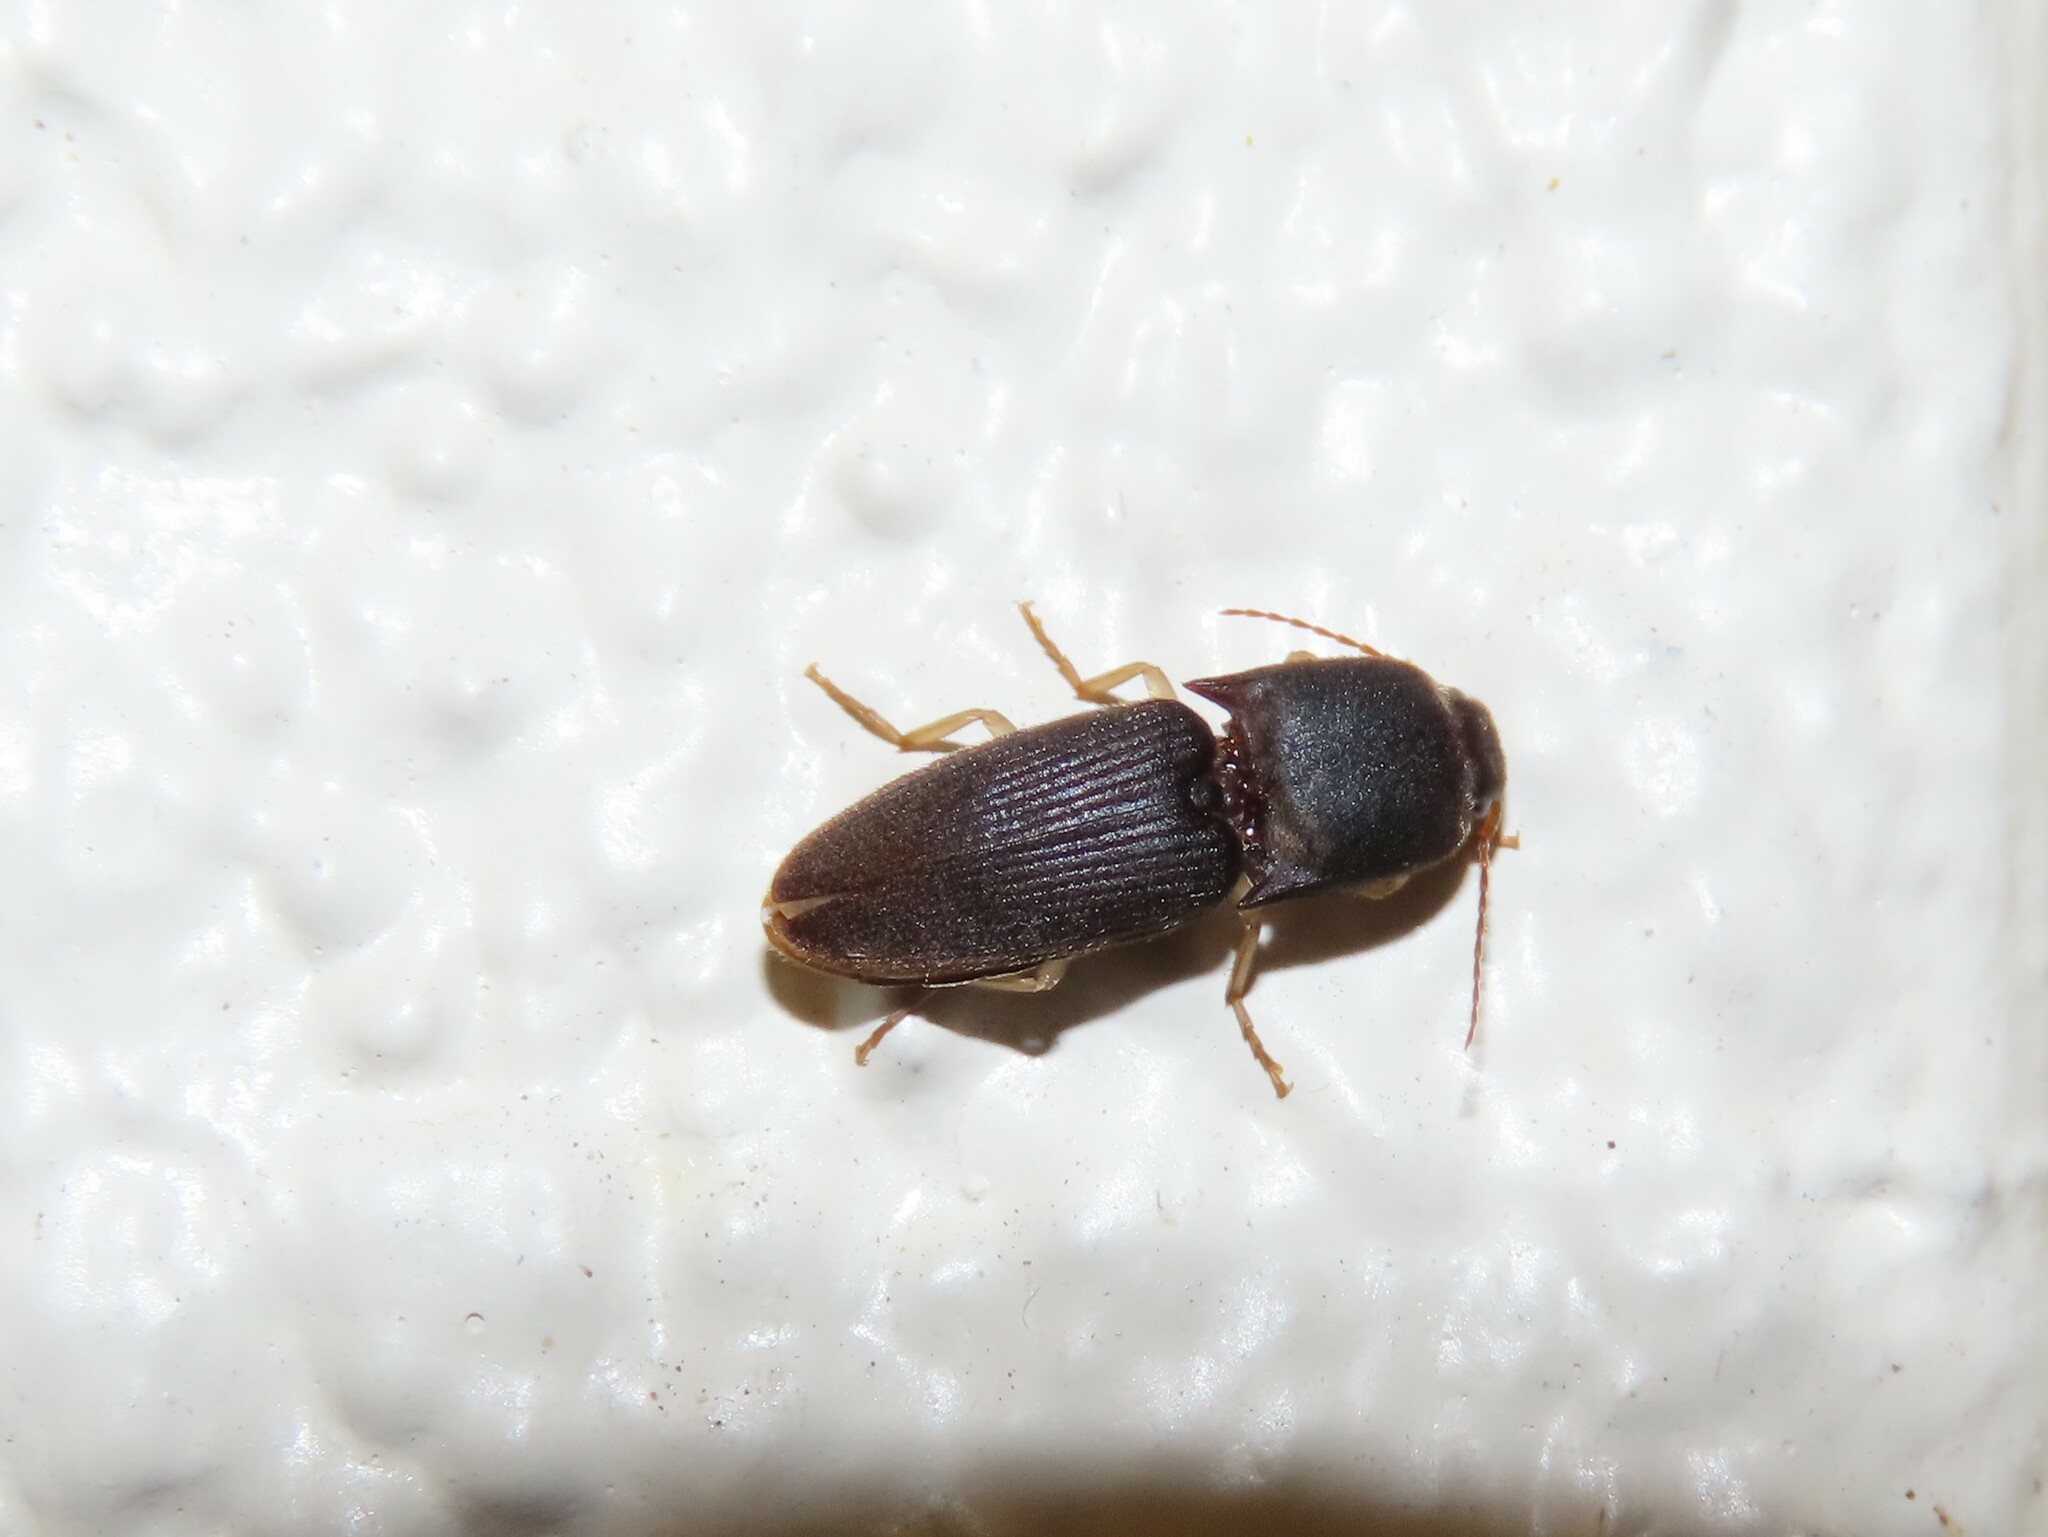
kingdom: Animalia
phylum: Arthropoda
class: Insecta
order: Coleoptera
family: Elateridae
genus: Heteroderes
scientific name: Heteroderes amplicollis
